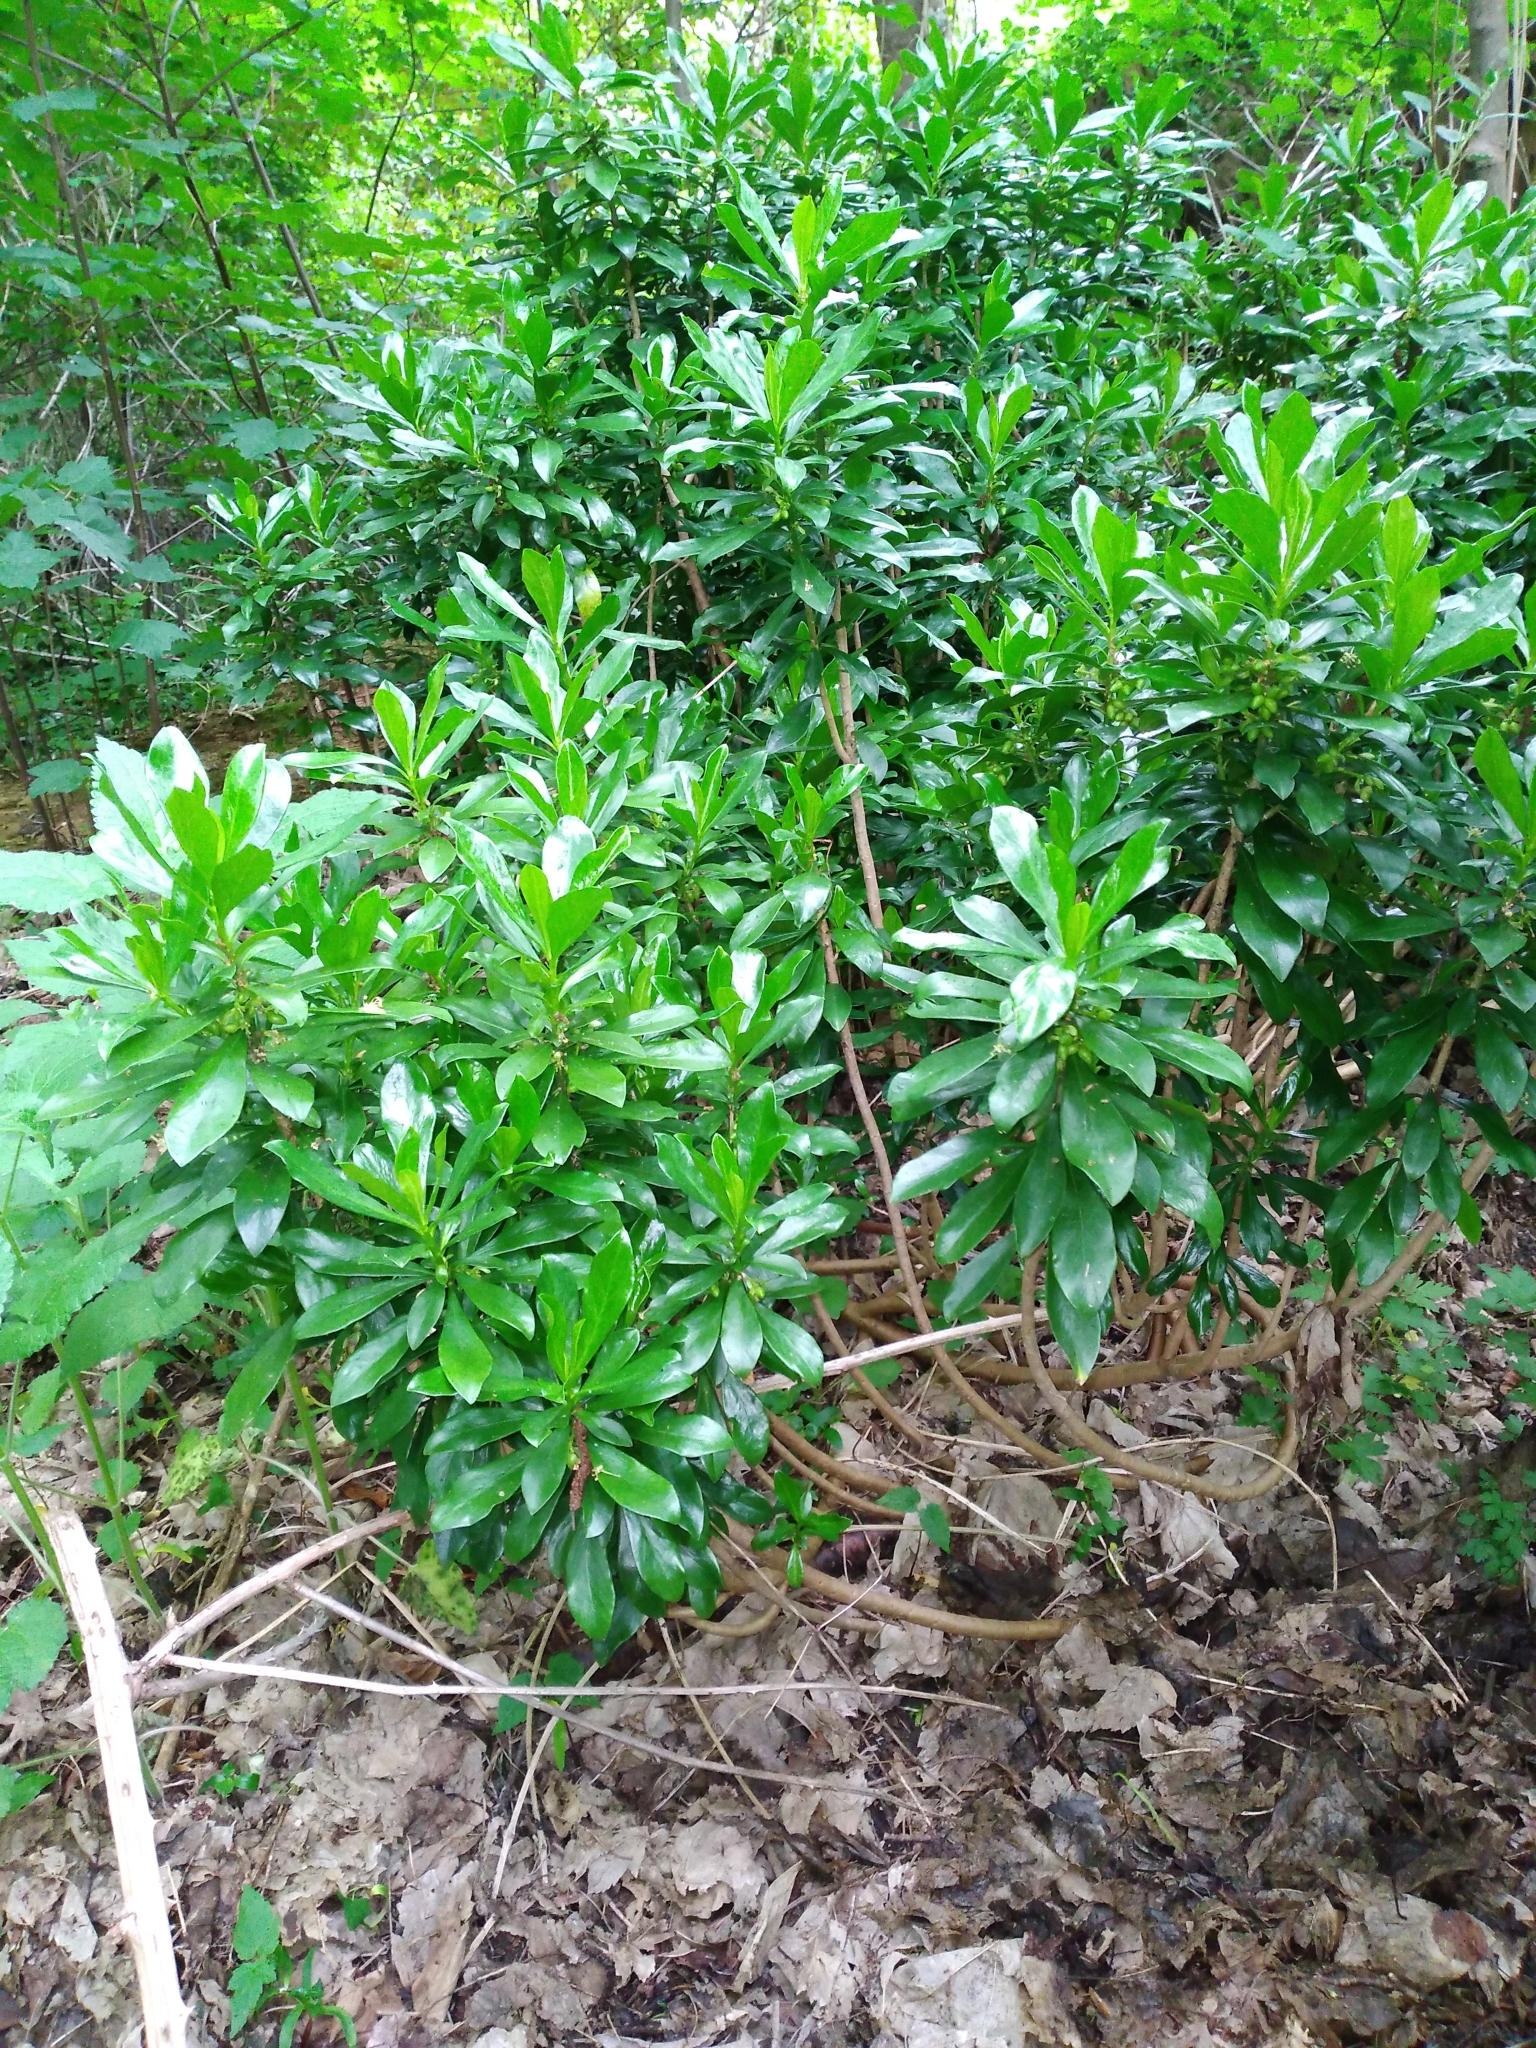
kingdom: Plantae
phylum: Tracheophyta
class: Magnoliopsida
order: Malvales
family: Thymelaeaceae
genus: Daphne
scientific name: Daphne laureola
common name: Spurge-laurel
